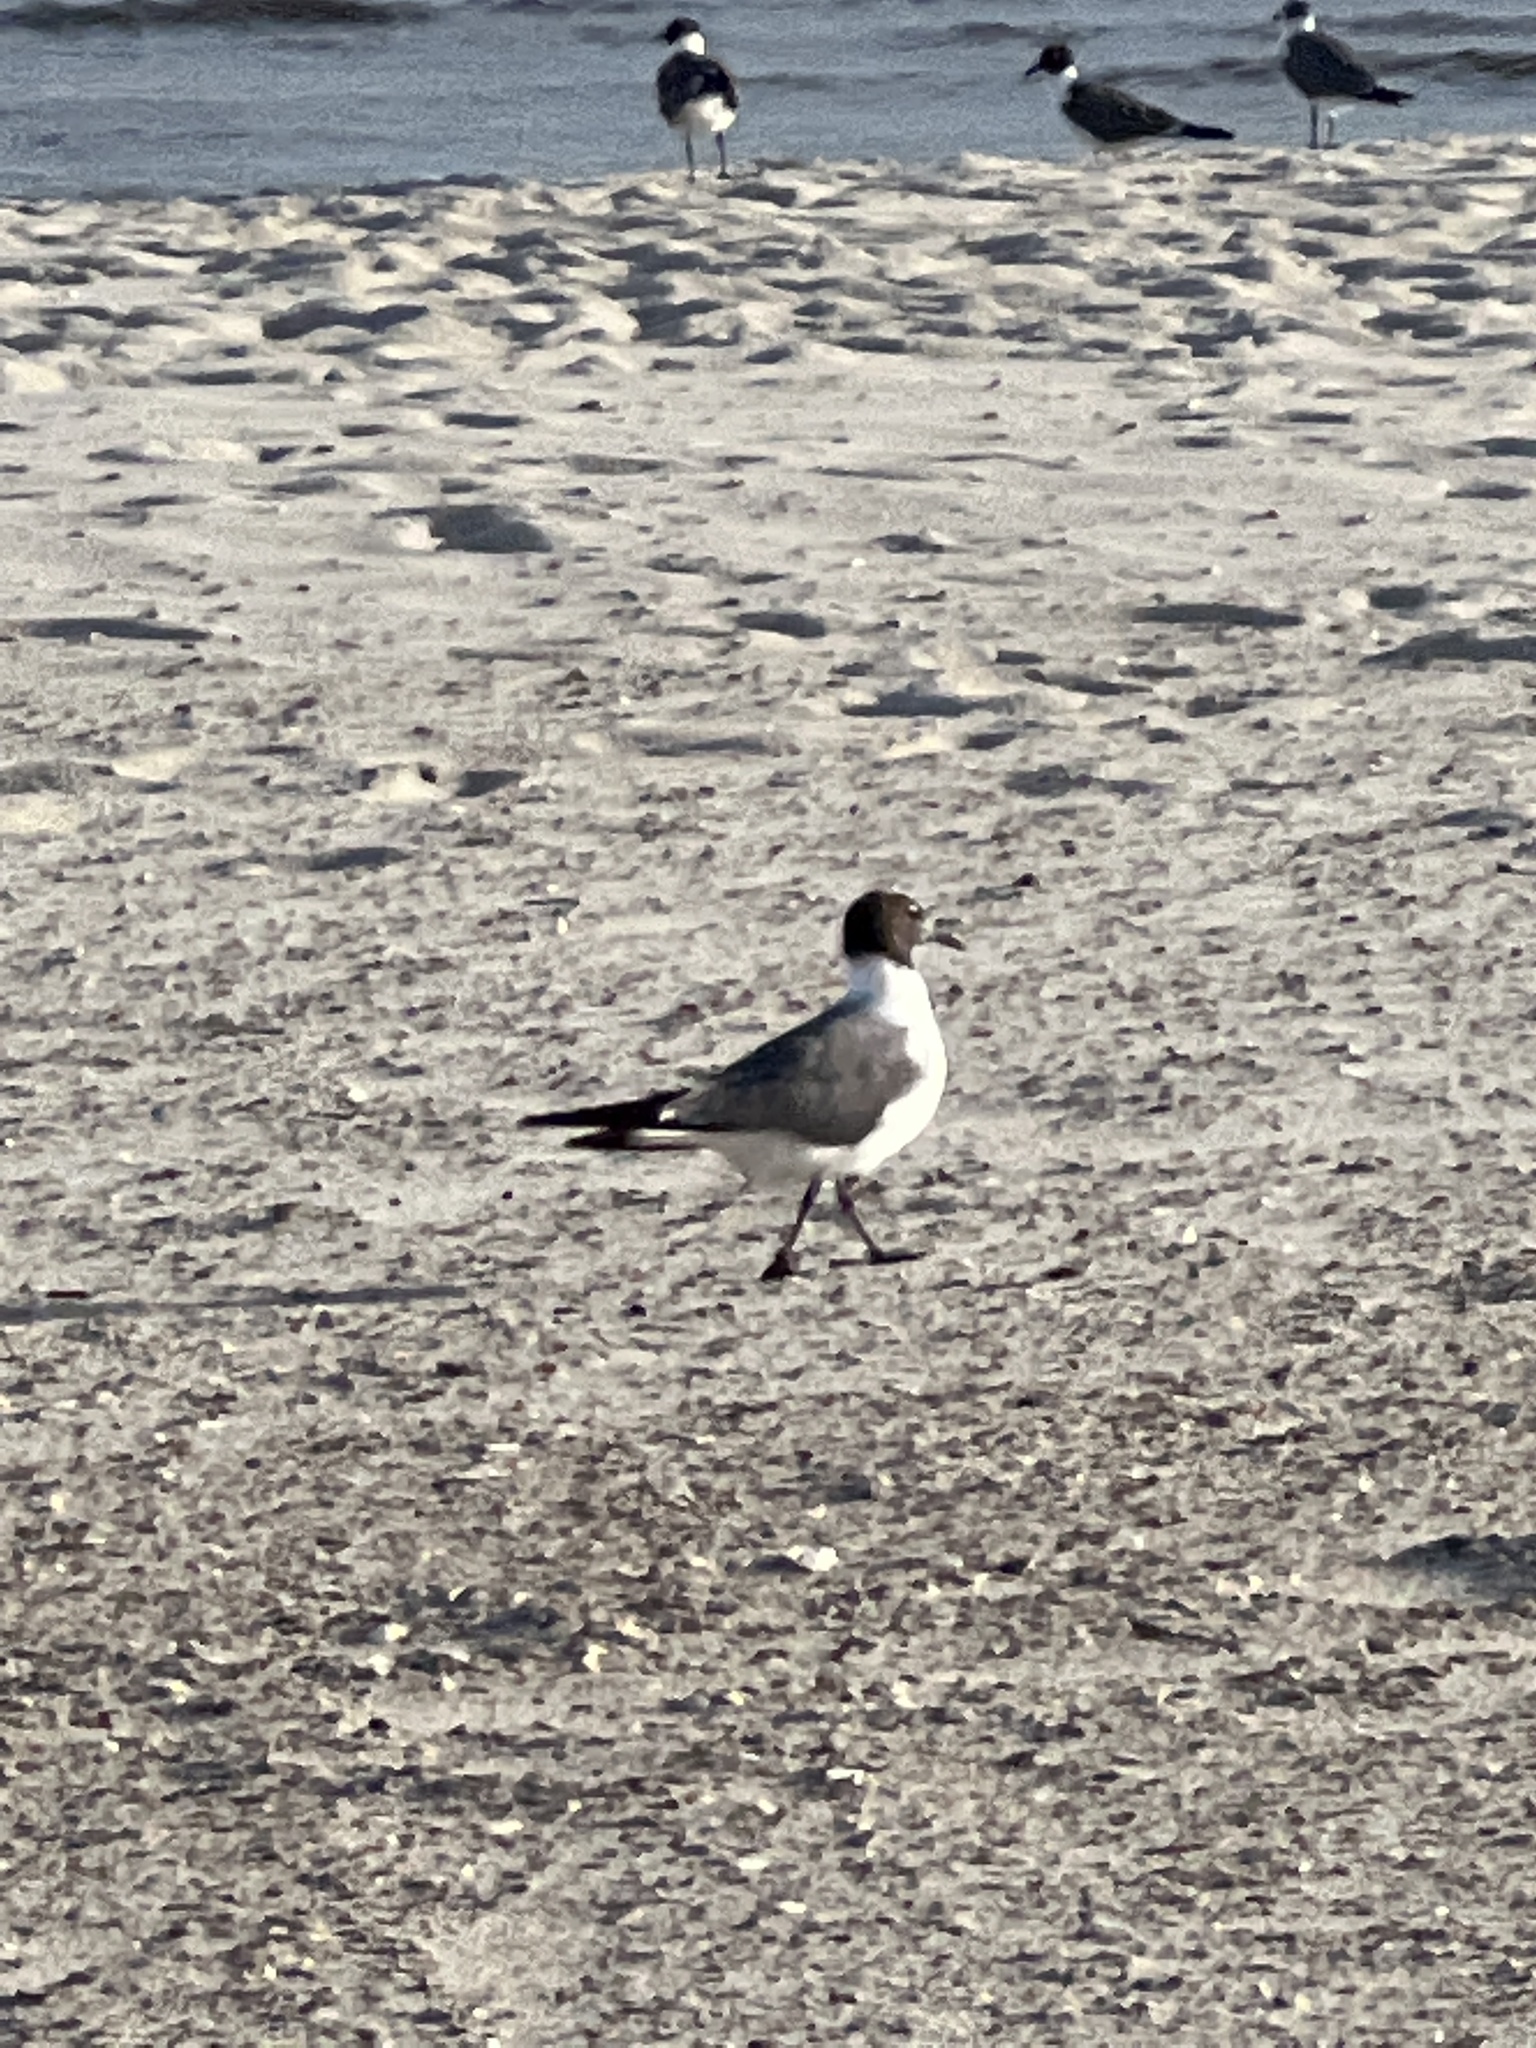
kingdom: Animalia
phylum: Chordata
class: Aves
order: Charadriiformes
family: Laridae
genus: Leucophaeus
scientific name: Leucophaeus atricilla
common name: Laughing gull
